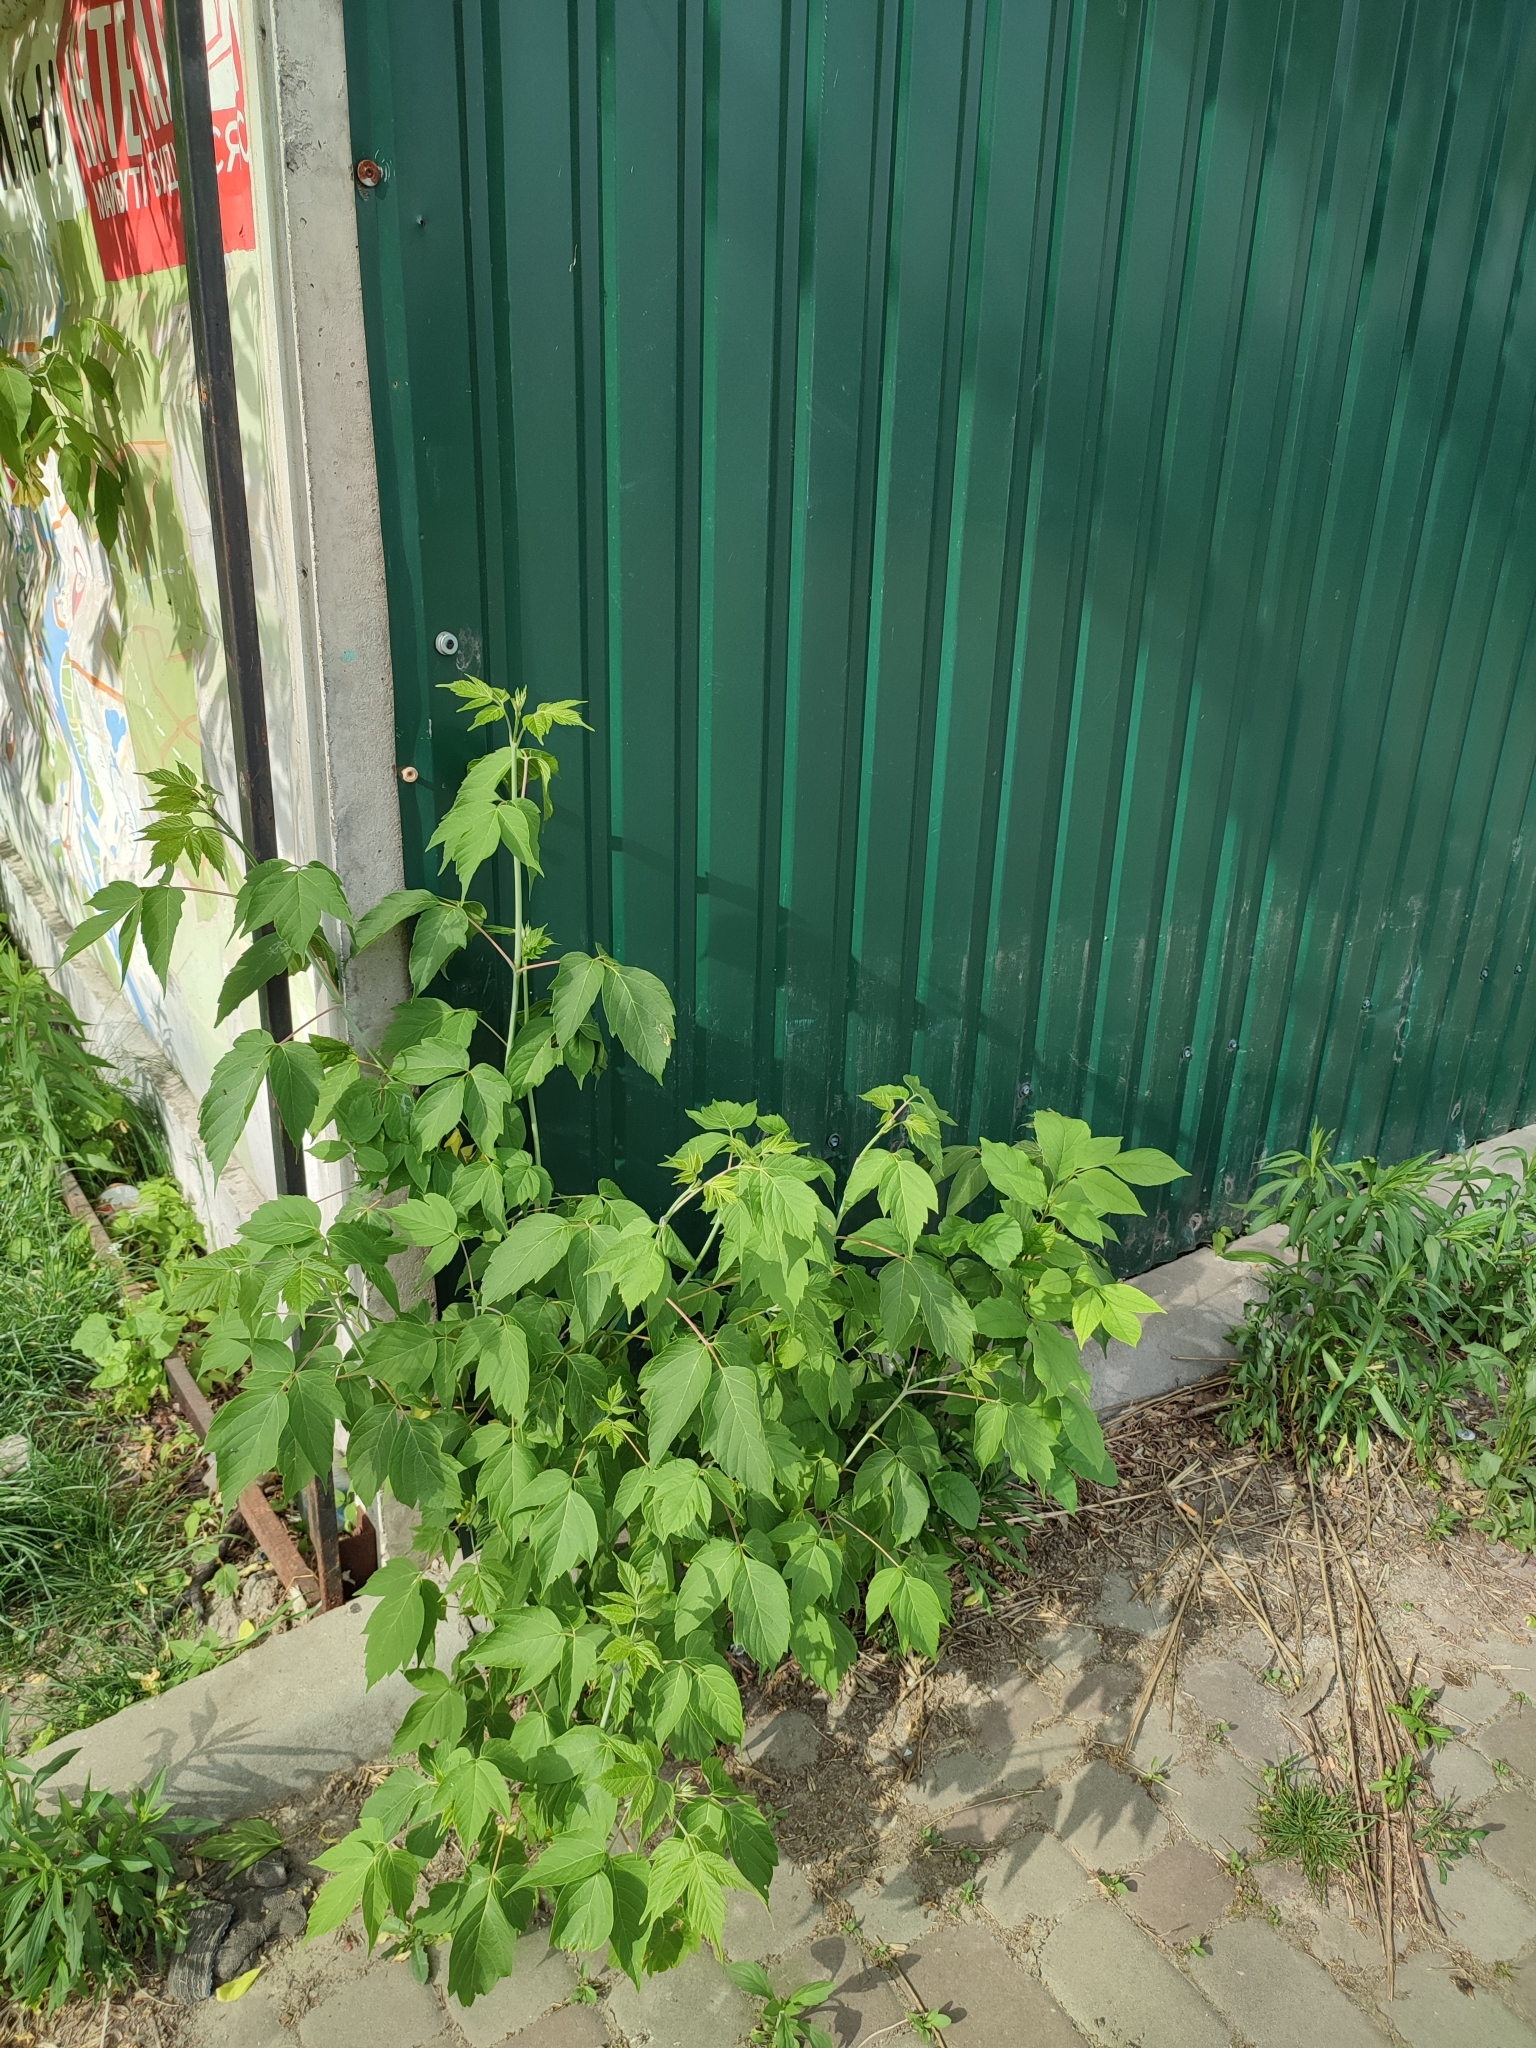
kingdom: Plantae
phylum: Tracheophyta
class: Magnoliopsida
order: Sapindales
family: Sapindaceae
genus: Acer
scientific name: Acer negundo
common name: Ashleaf maple
